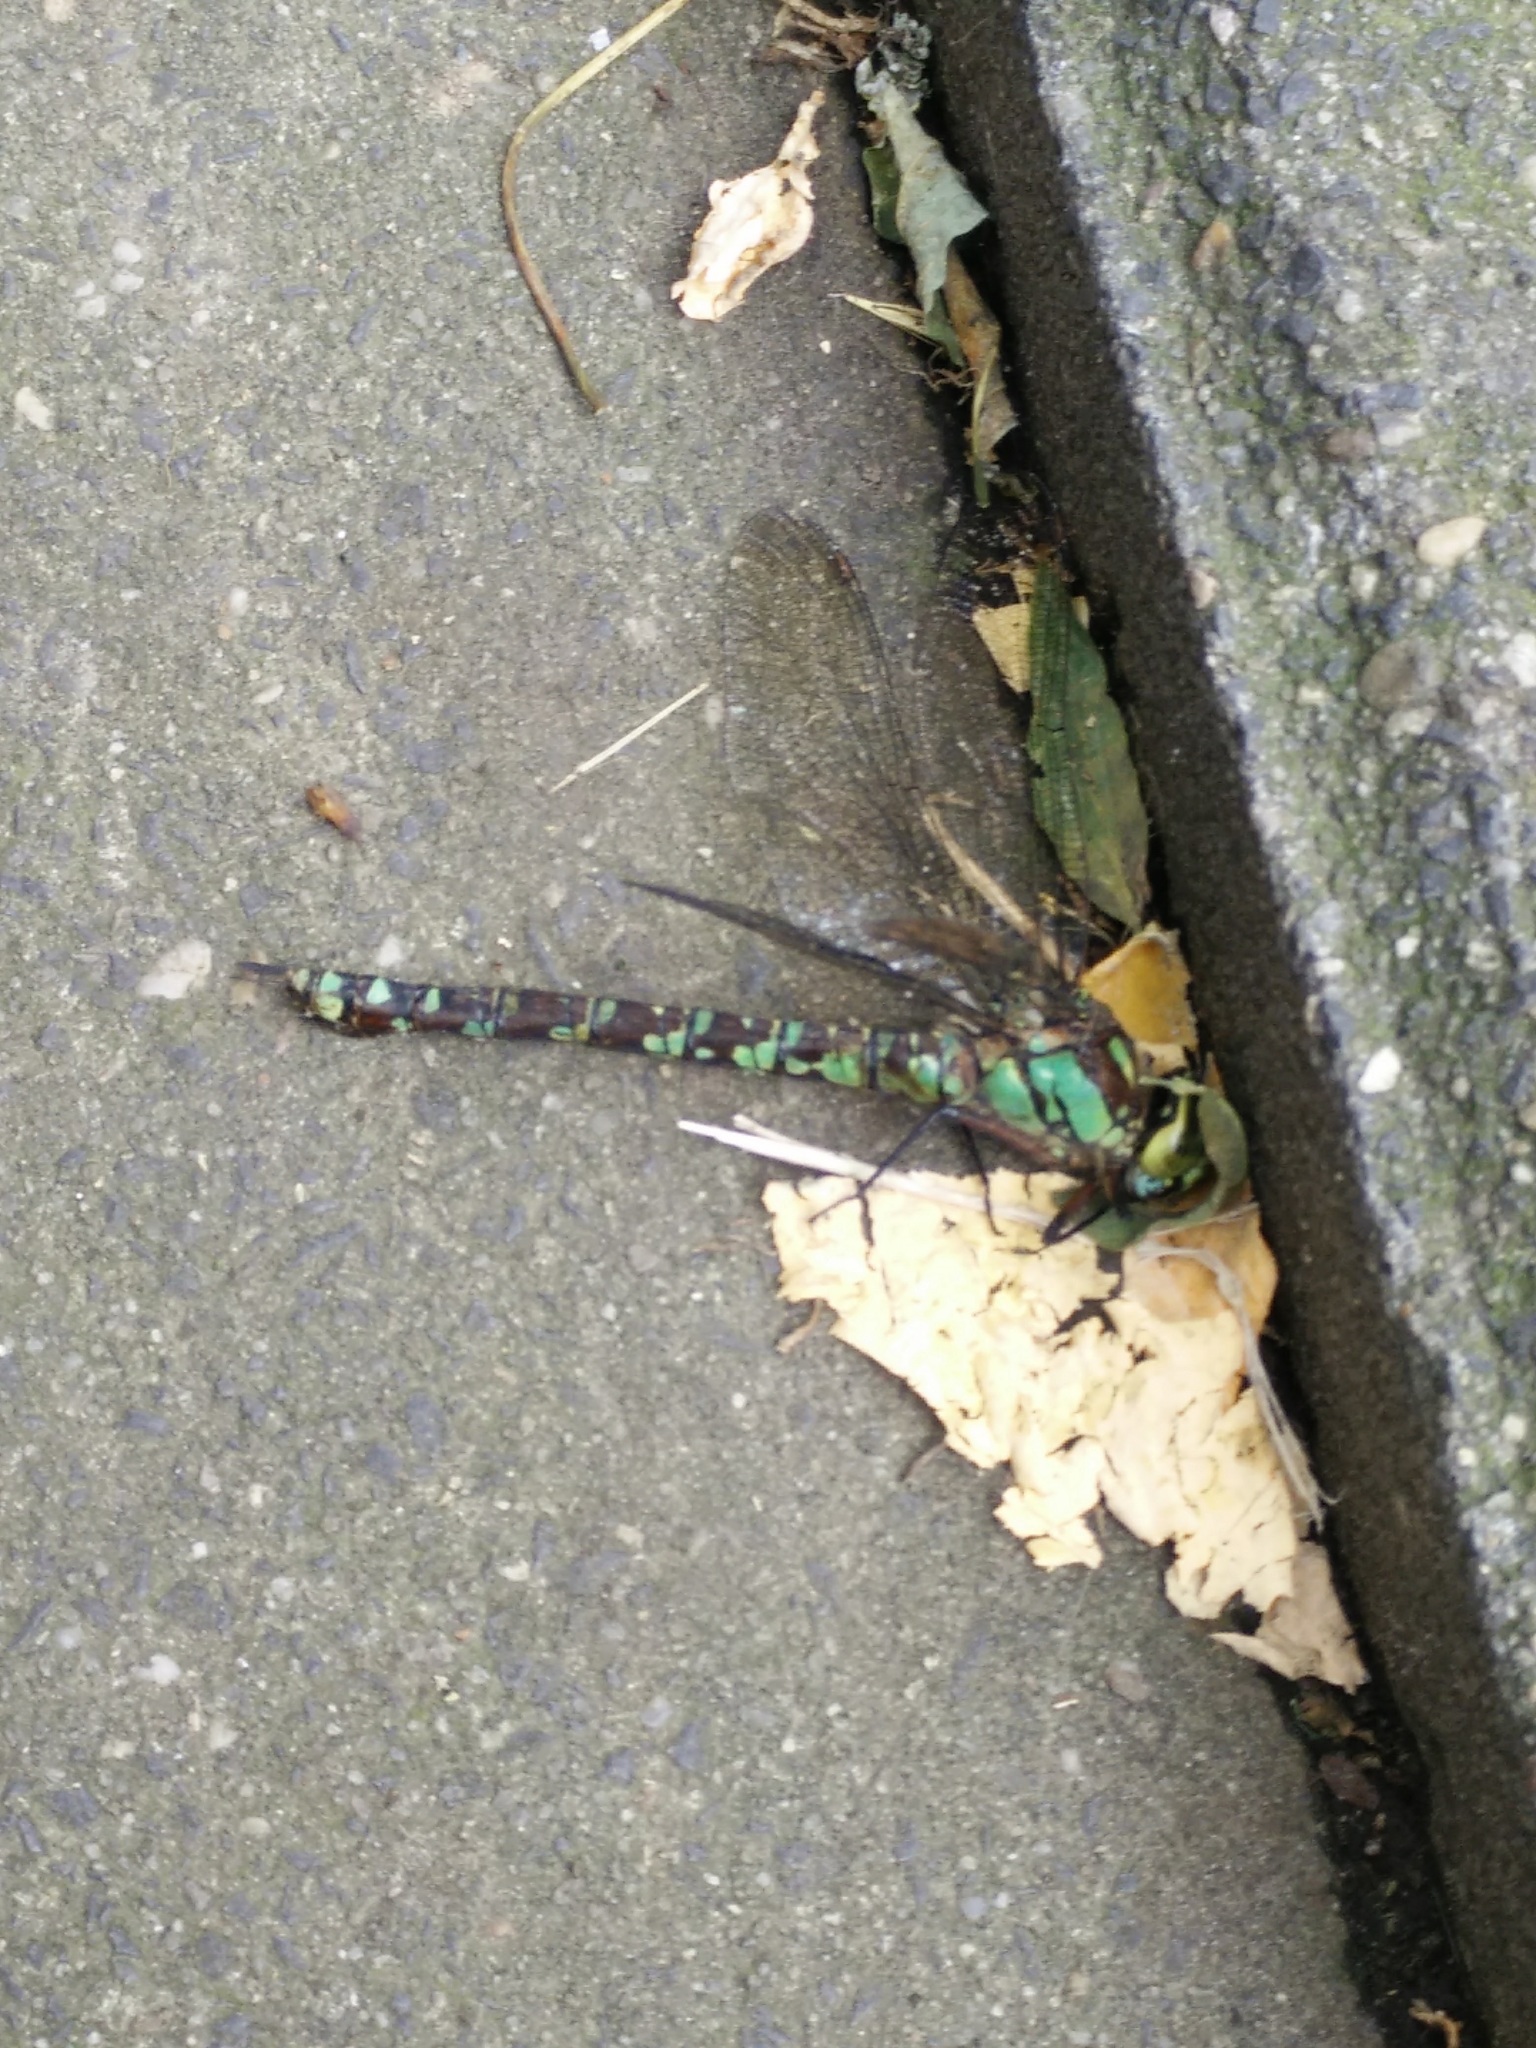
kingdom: Animalia
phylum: Arthropoda
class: Insecta
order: Odonata
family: Aeshnidae
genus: Aeshna
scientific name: Aeshna cyanea
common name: Southern hawker
